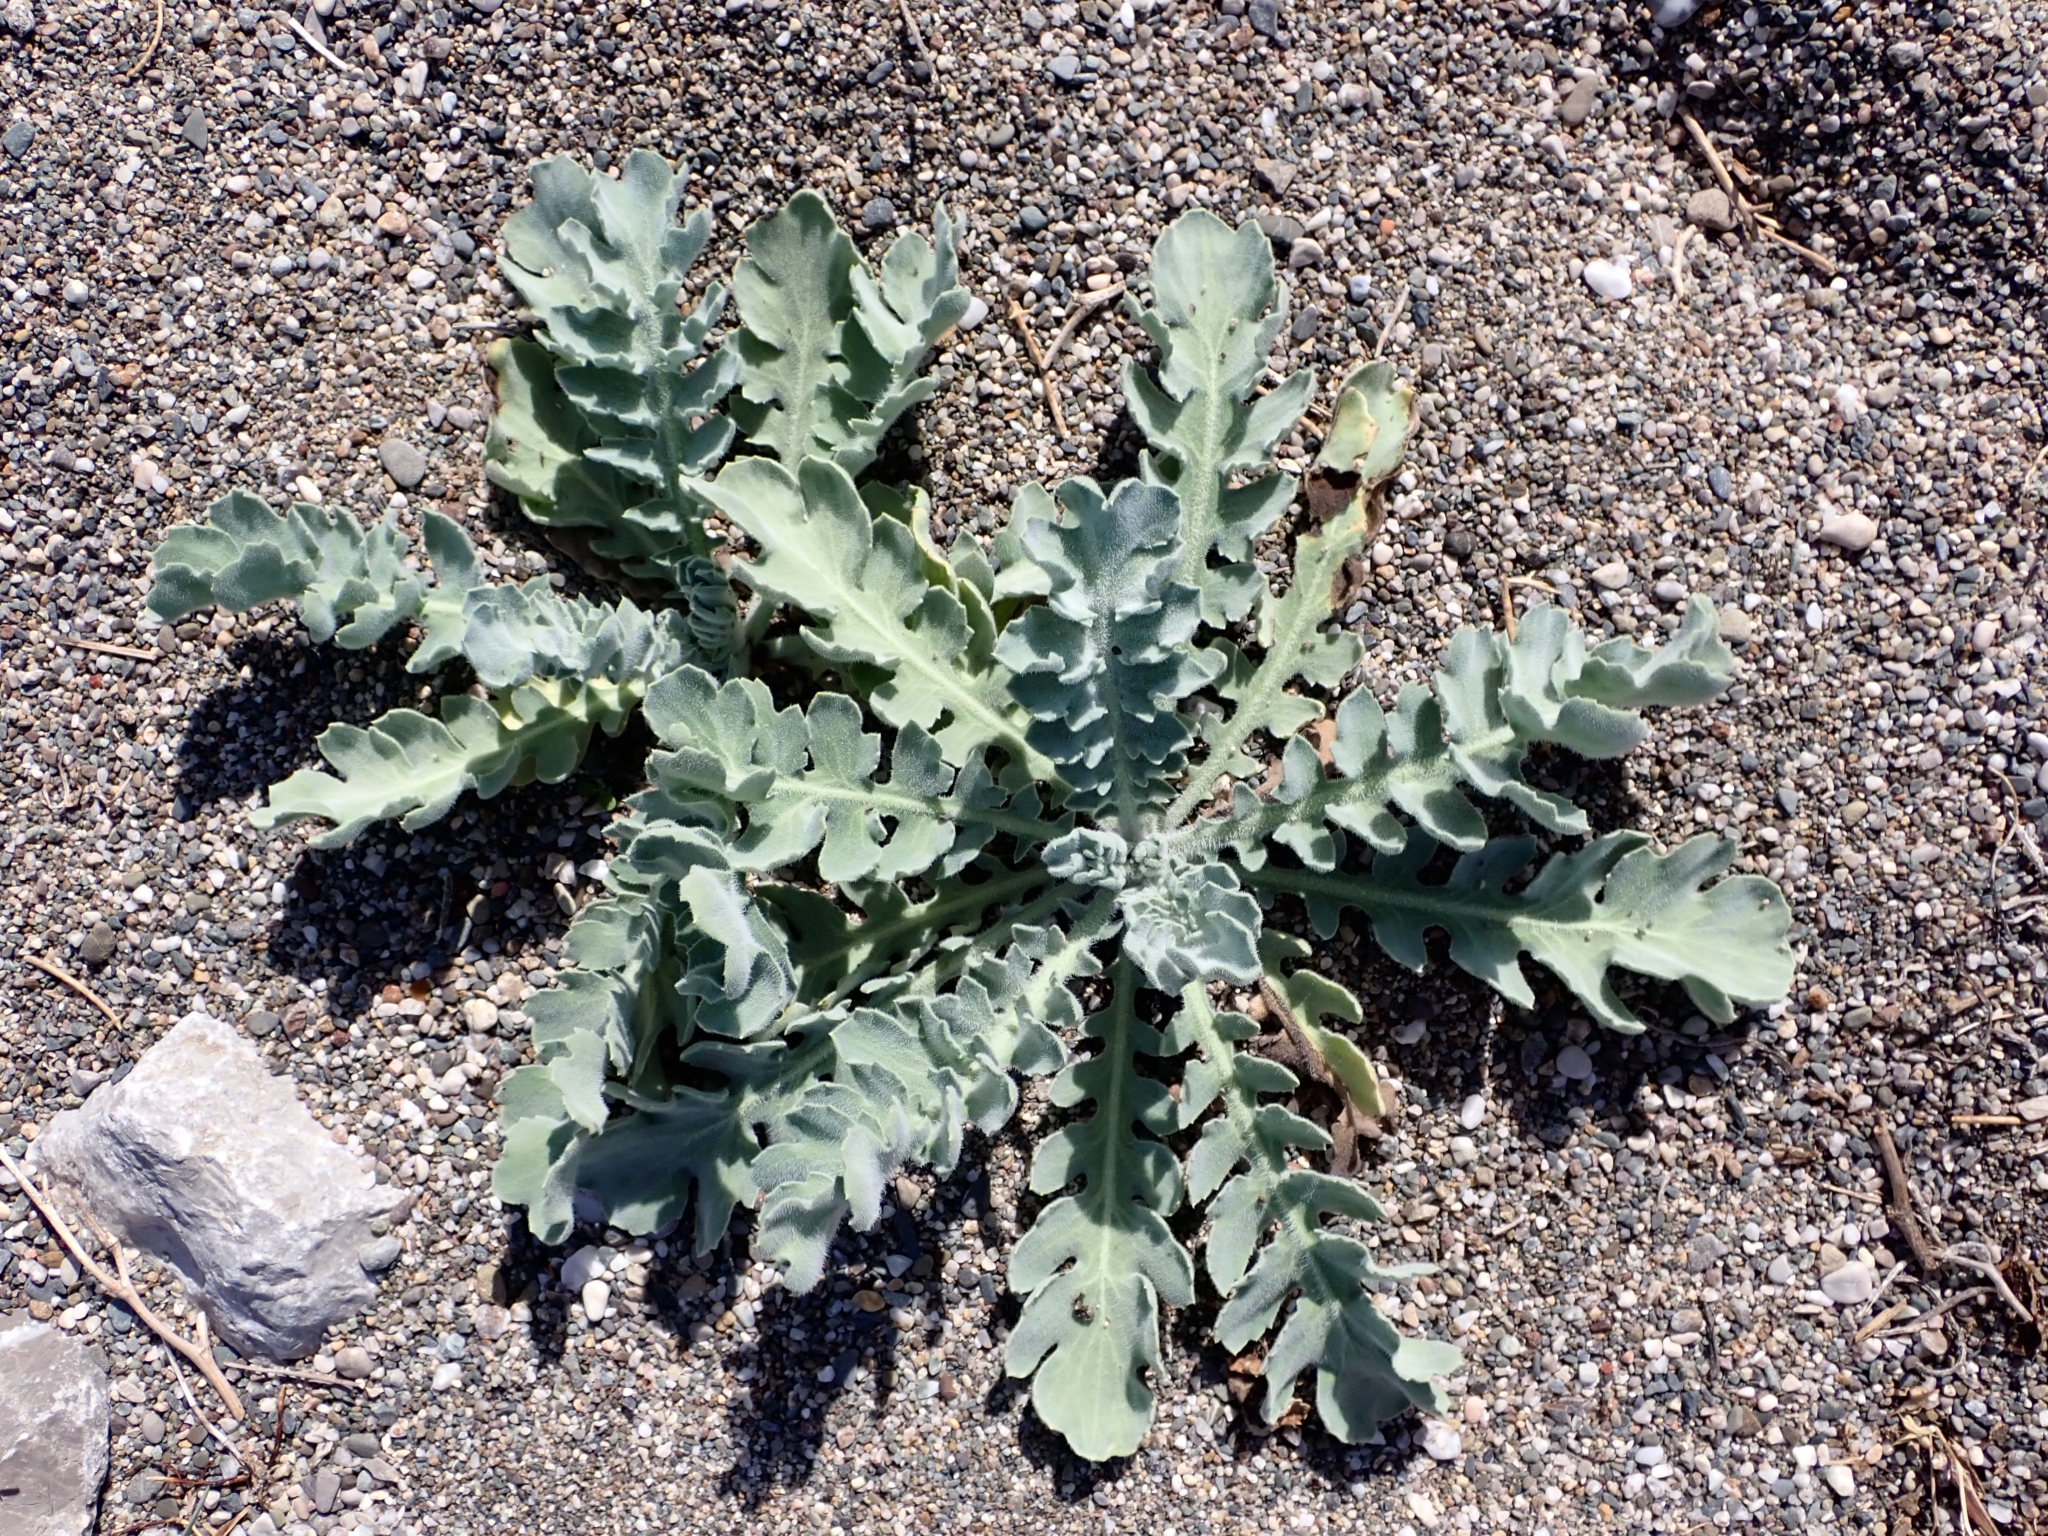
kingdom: Plantae
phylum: Tracheophyta
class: Magnoliopsida
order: Ranunculales
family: Papaveraceae
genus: Glaucium
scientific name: Glaucium flavum
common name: Yellow horned-poppy
